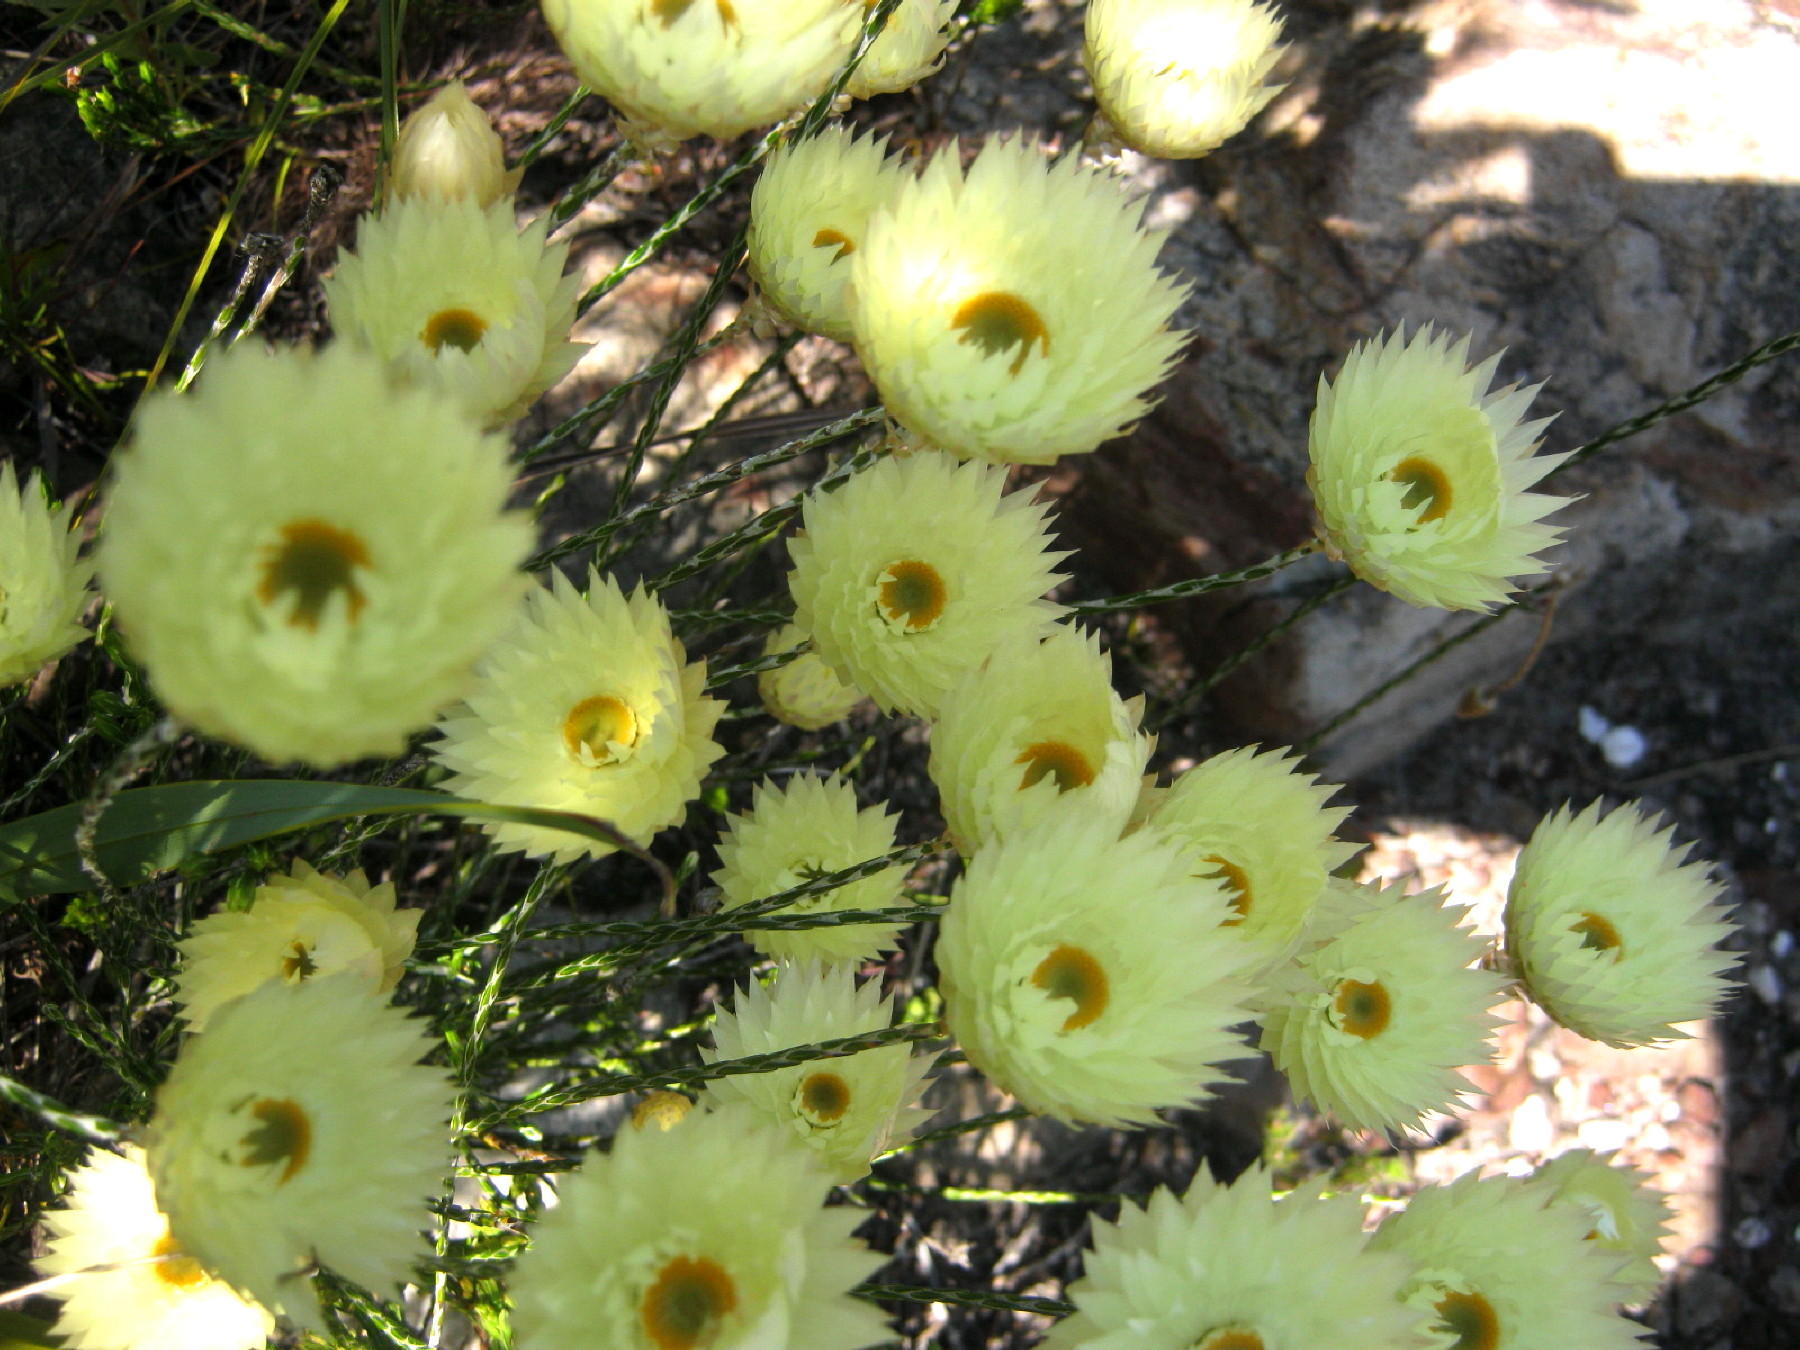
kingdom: Plantae
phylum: Tracheophyta
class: Magnoliopsida
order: Asterales
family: Asteraceae
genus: Edmondia
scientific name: Edmondia sesamoides
